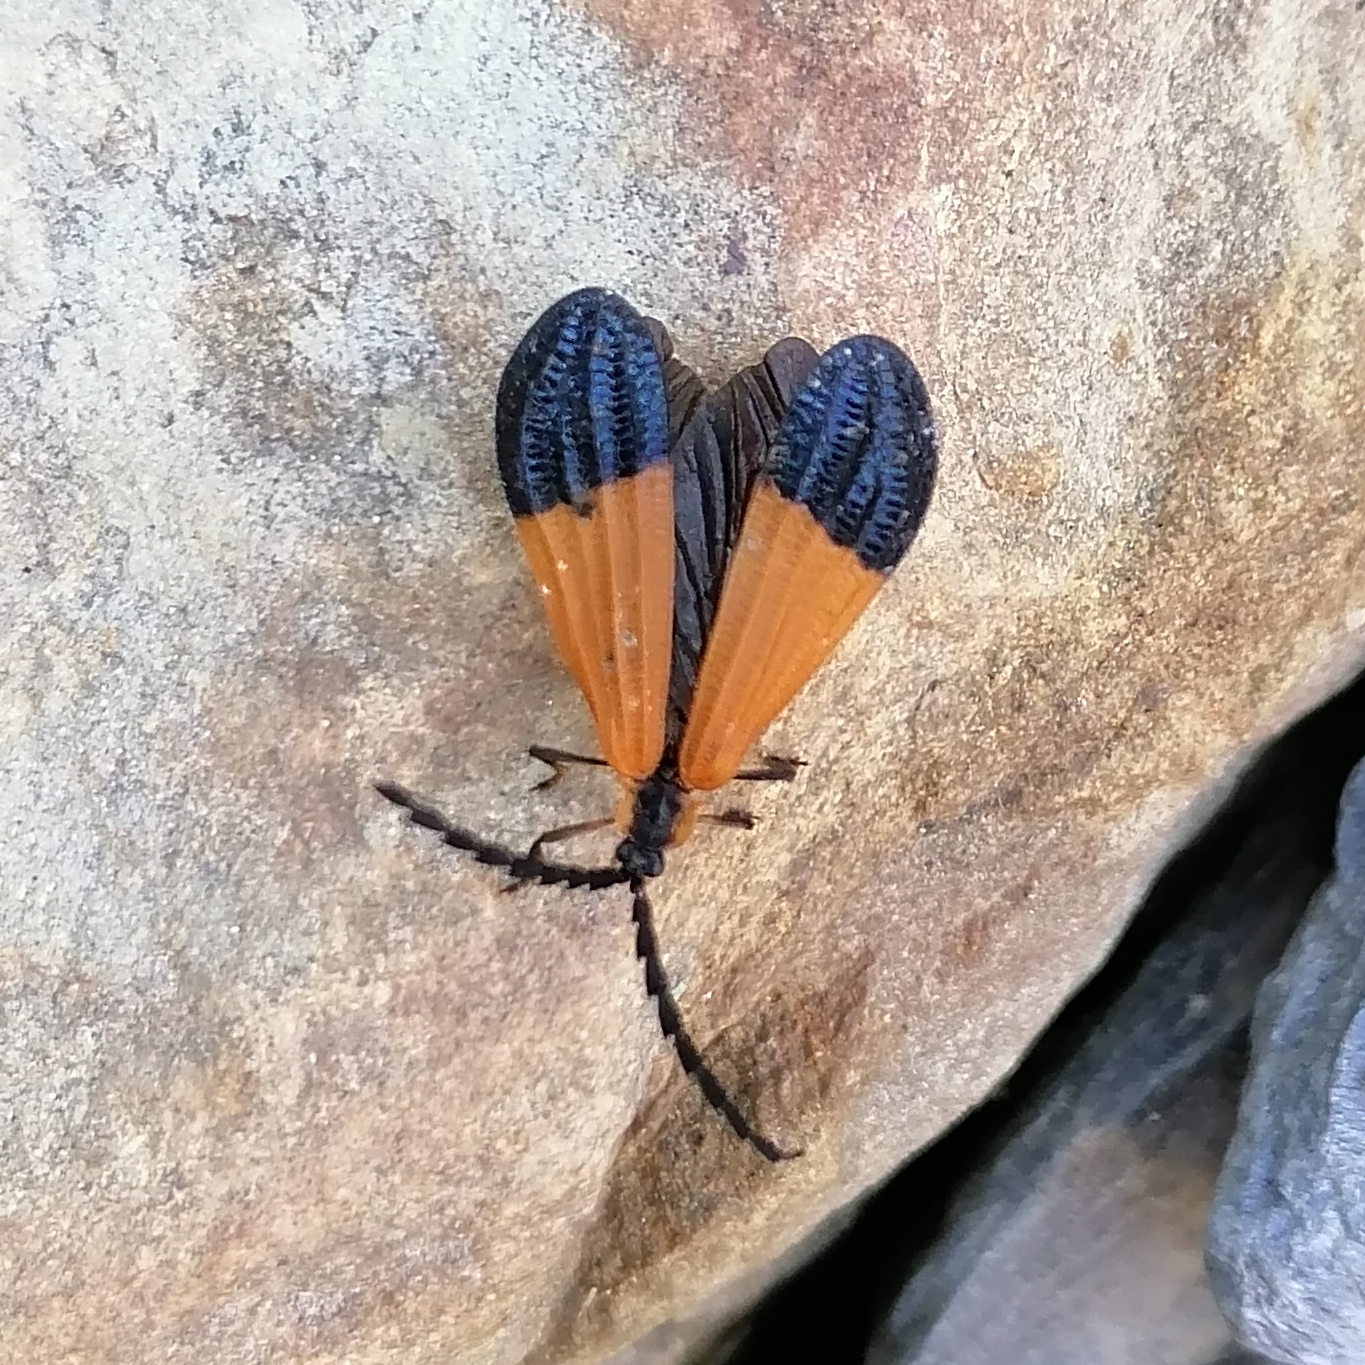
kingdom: Animalia
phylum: Arthropoda
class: Insecta
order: Coleoptera
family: Lycidae
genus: Calopteron
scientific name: Calopteron terminale
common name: End band net-winged beetle
